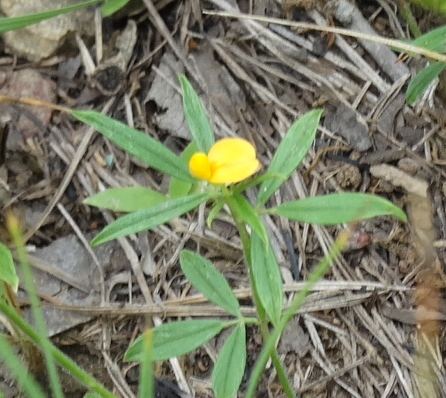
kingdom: Plantae
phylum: Tracheophyta
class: Magnoliopsida
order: Fabales
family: Fabaceae
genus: Stylosanthes
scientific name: Stylosanthes biflora
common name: Two-flower pencil-flower
